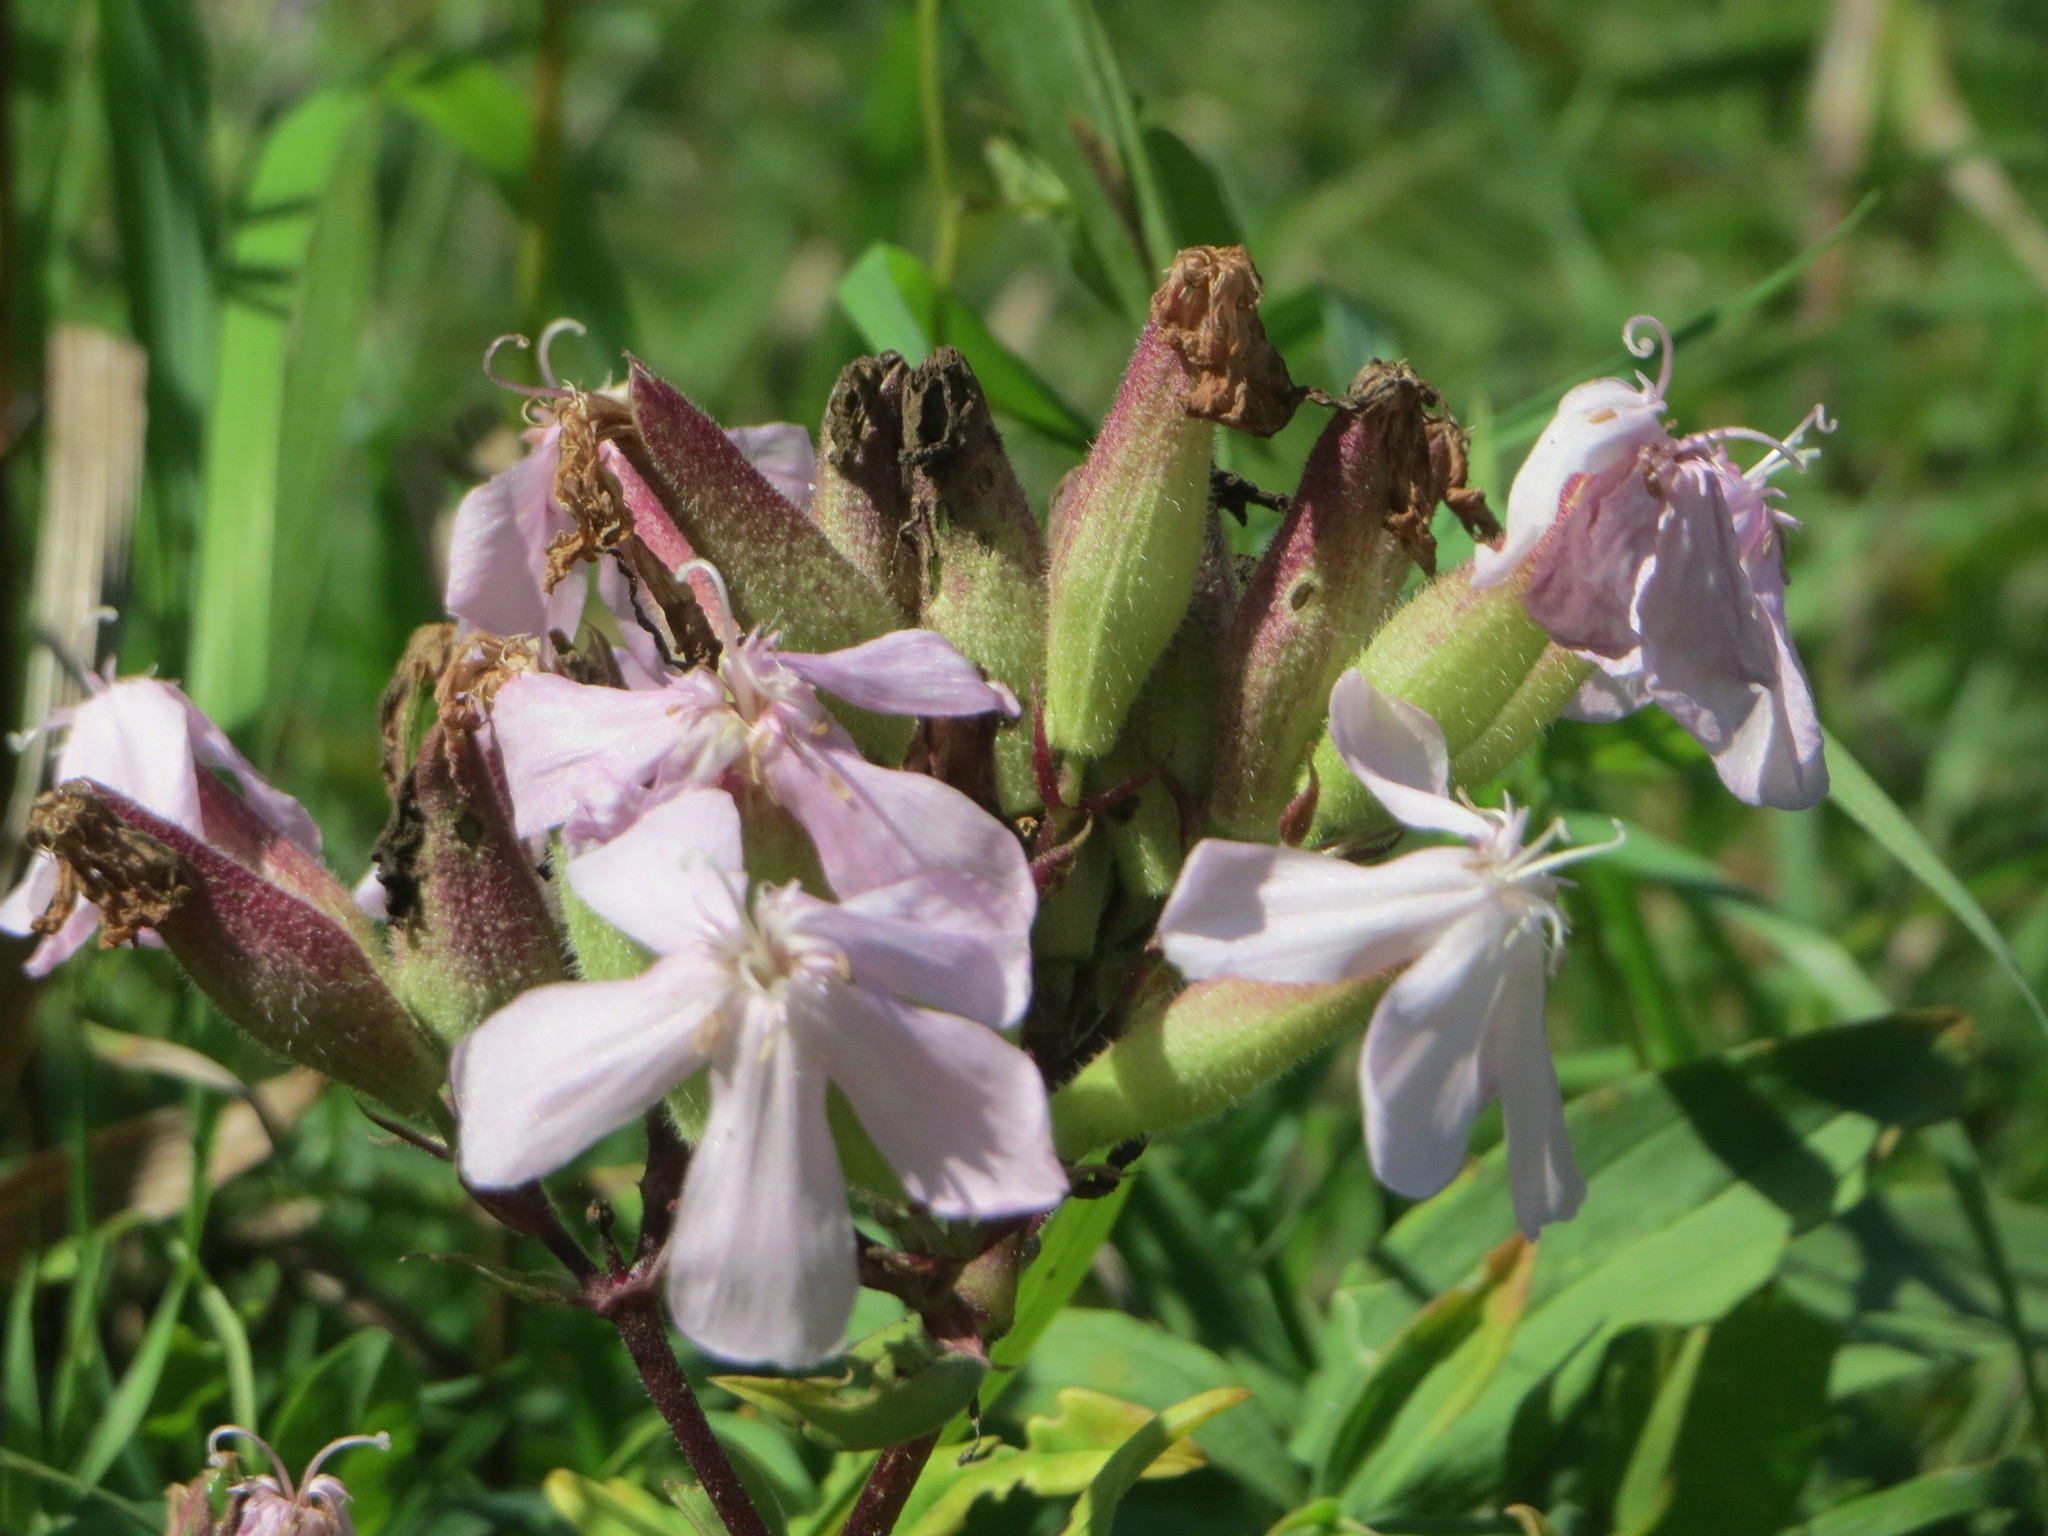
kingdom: Plantae
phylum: Tracheophyta
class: Magnoliopsida
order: Caryophyllales
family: Caryophyllaceae
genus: Saponaria
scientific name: Saponaria officinalis
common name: Soapwort
